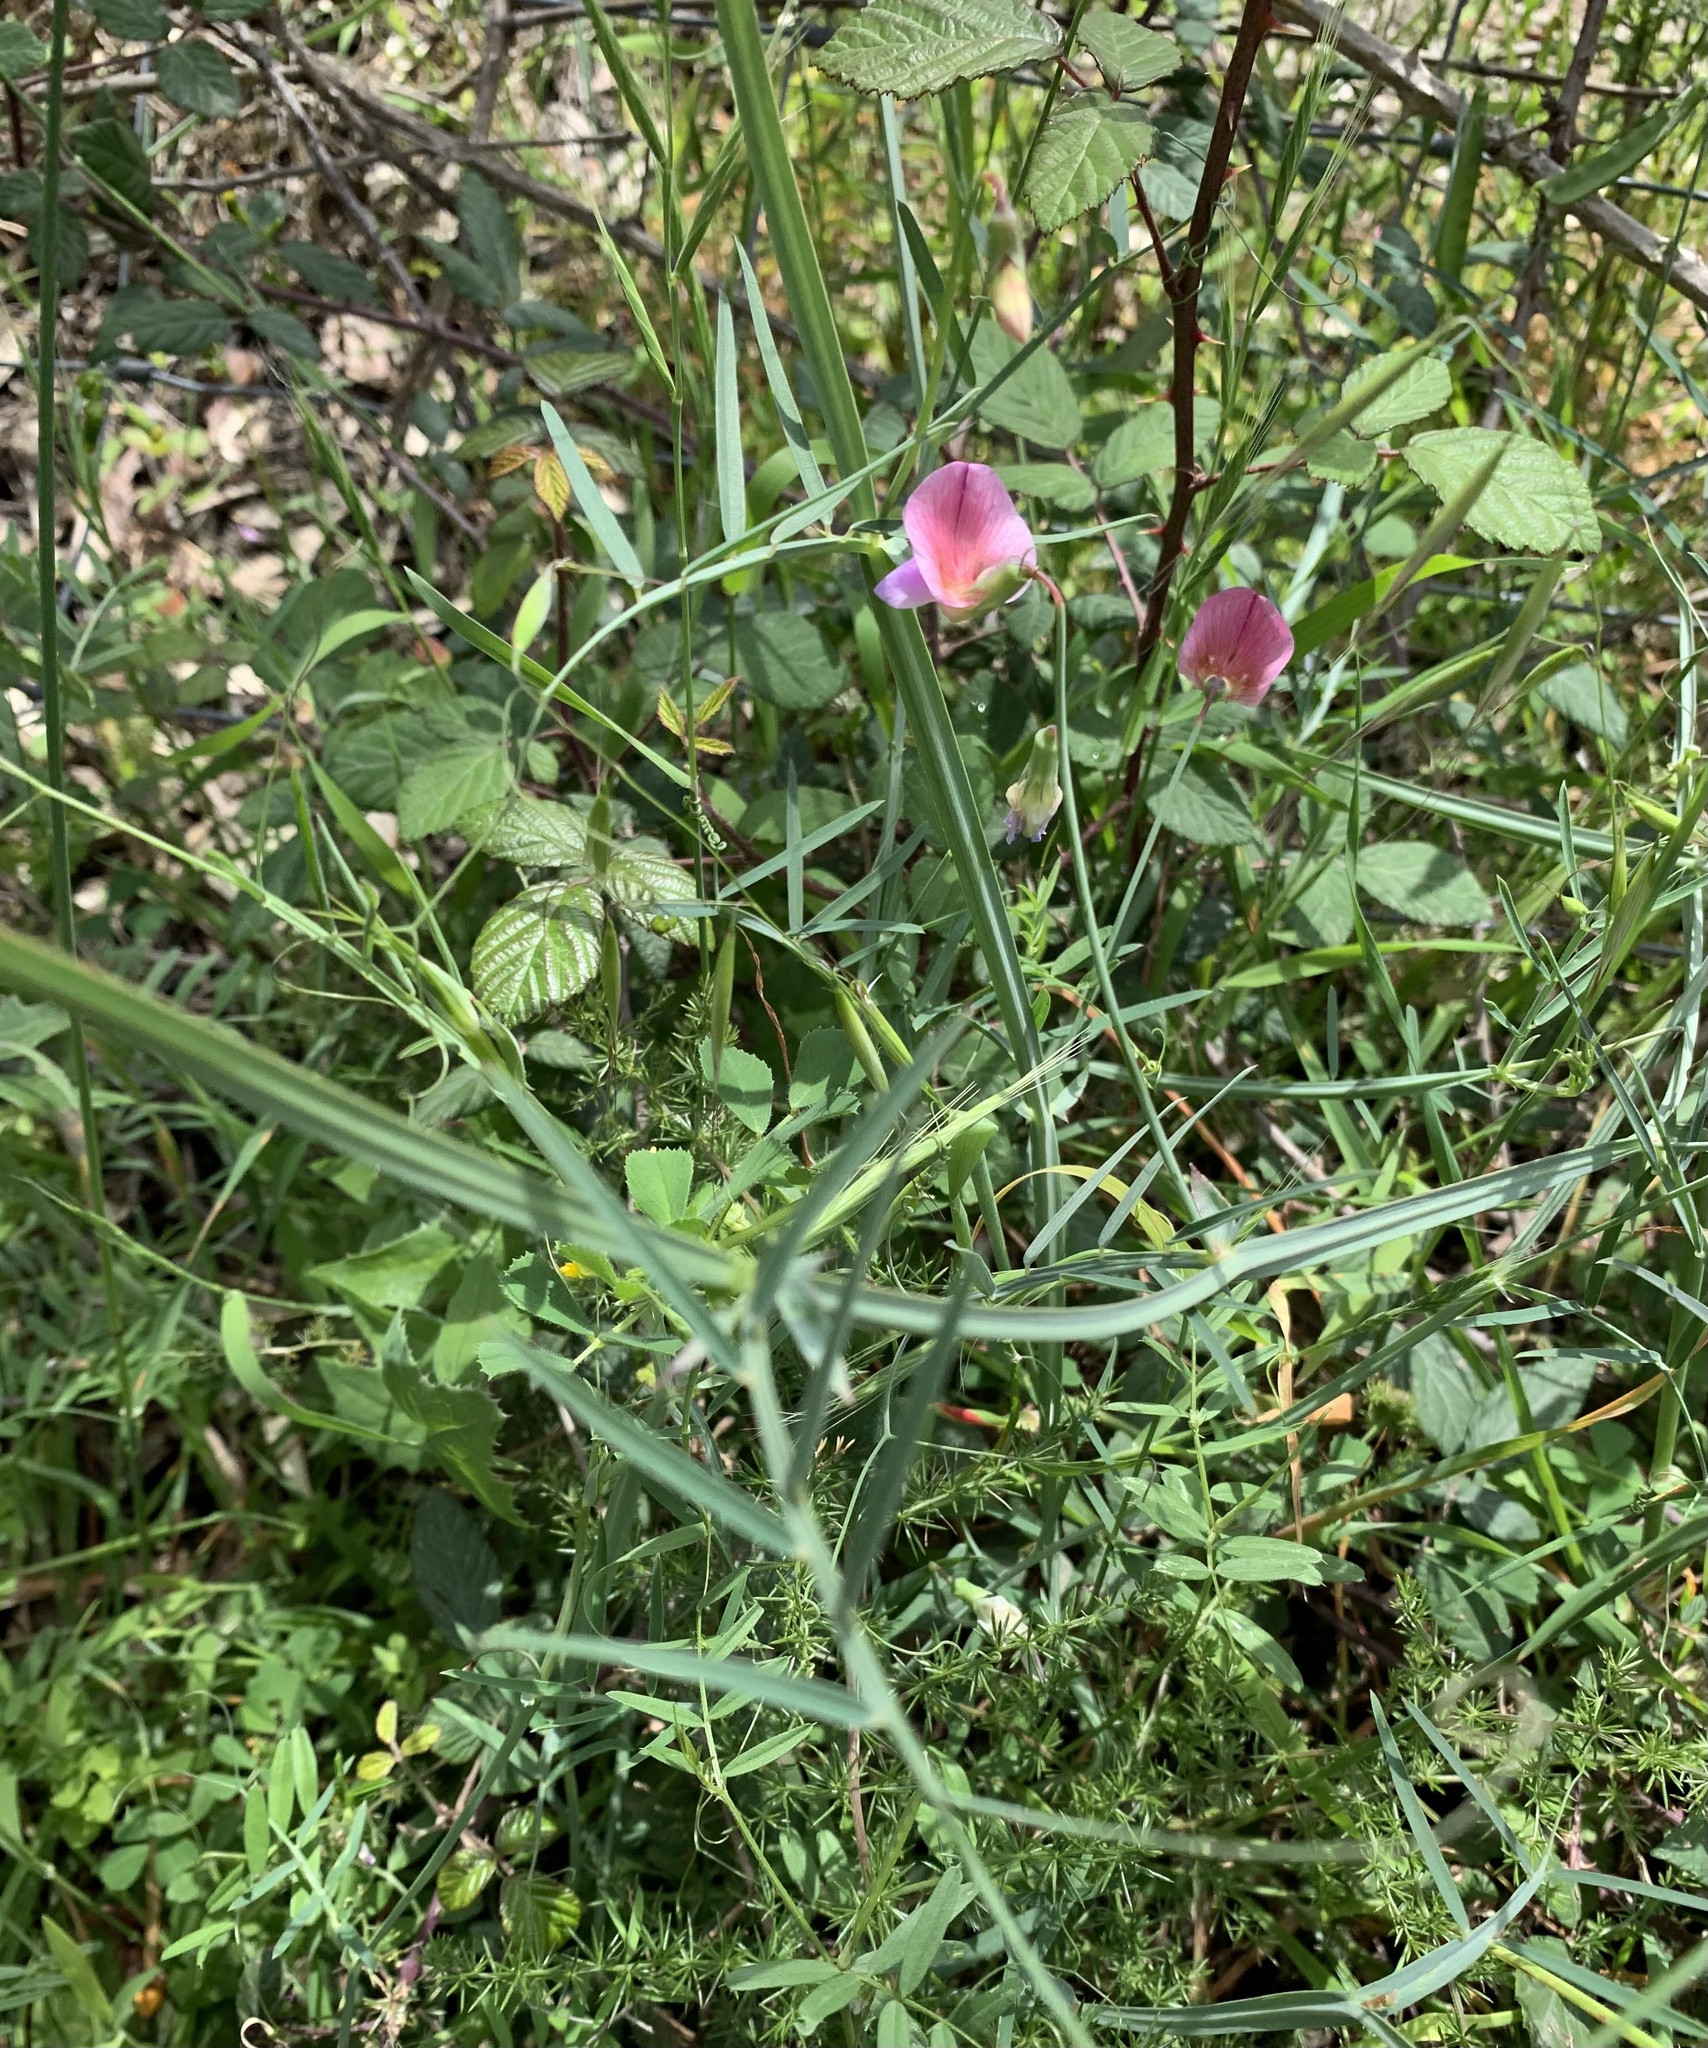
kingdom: Plantae
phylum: Tracheophyta
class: Magnoliopsida
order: Fabales
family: Fabaceae
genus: Lathyrus
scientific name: Lathyrus clymenum
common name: Spanish vetchling
